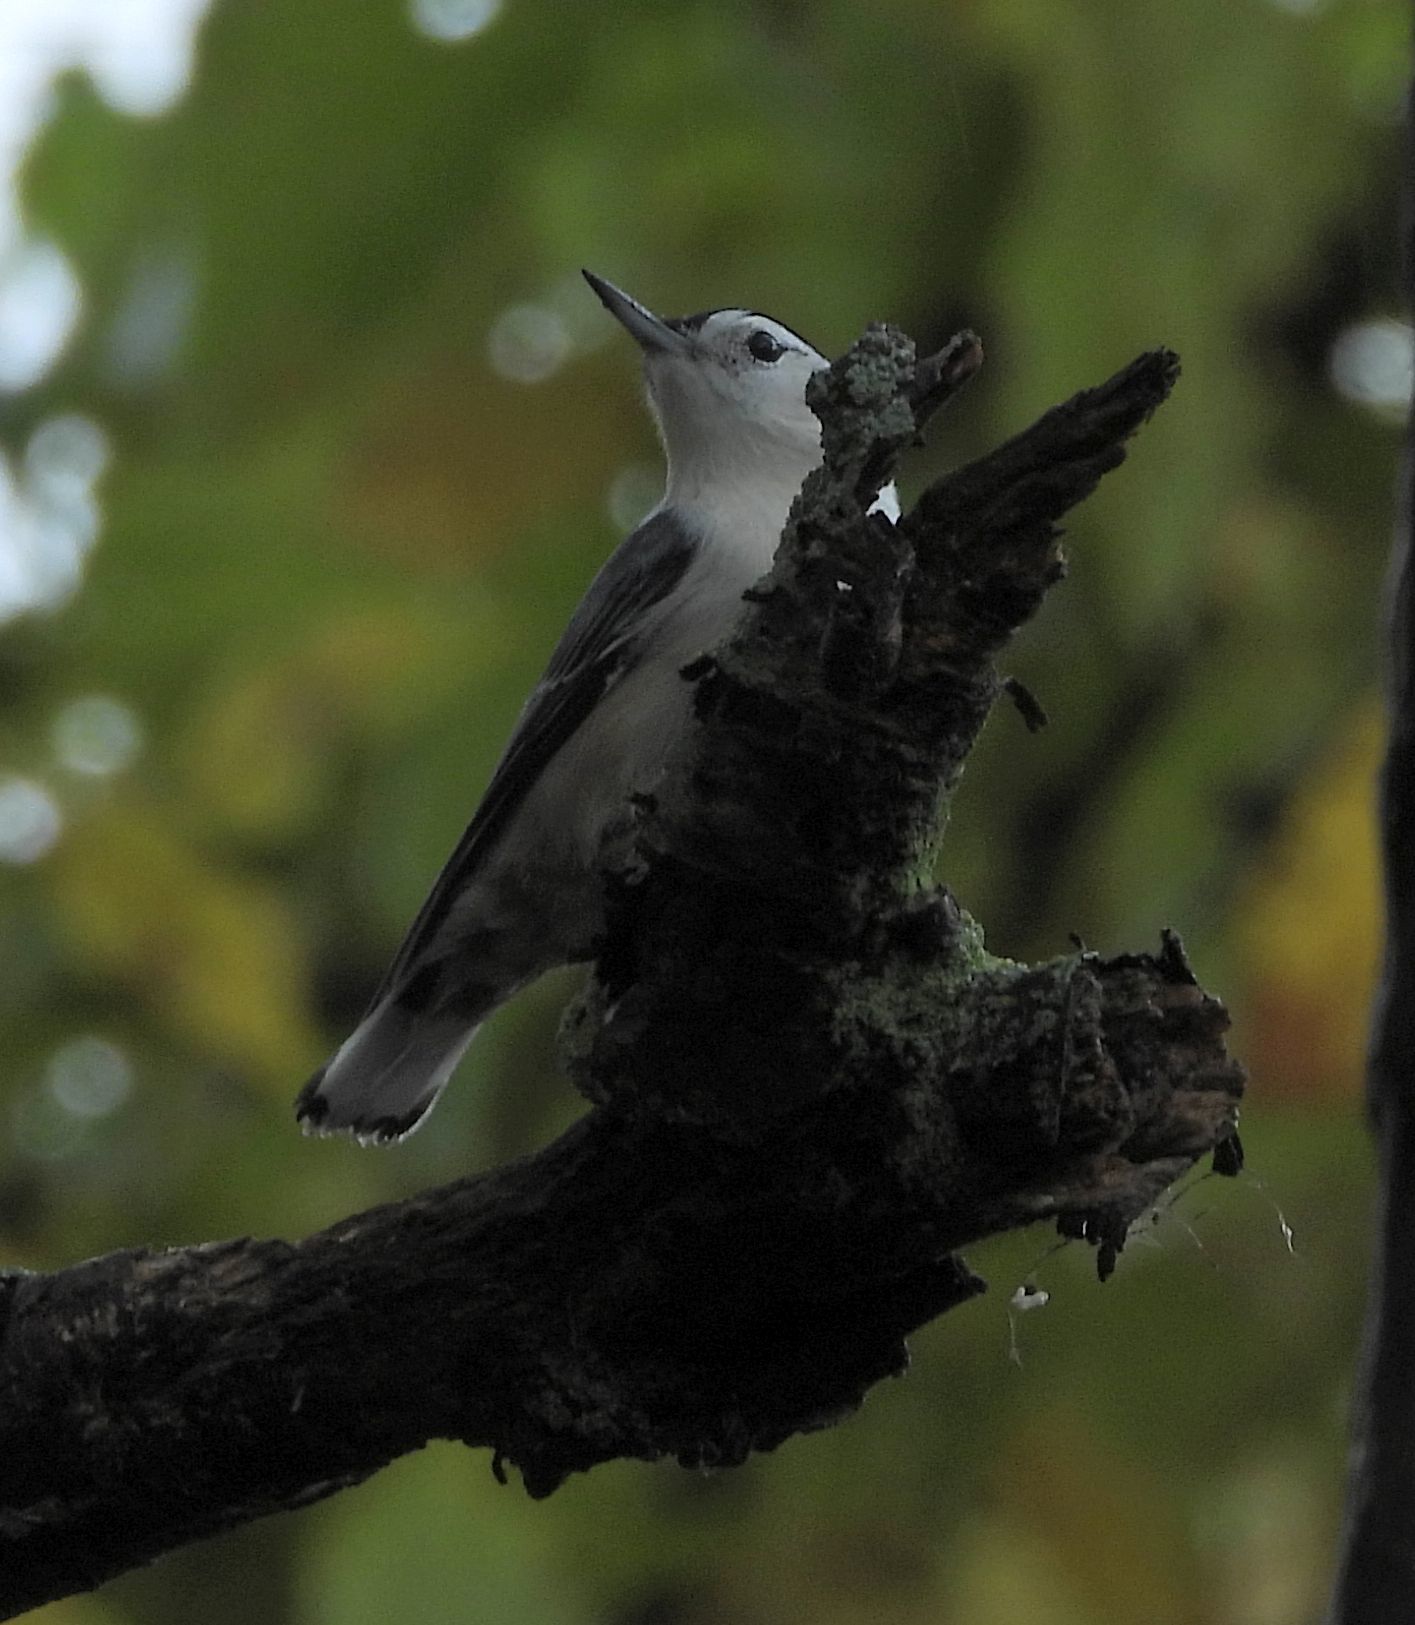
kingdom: Animalia
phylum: Chordata
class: Aves
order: Passeriformes
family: Sittidae
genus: Sitta
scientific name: Sitta carolinensis
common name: White-breasted nuthatch
